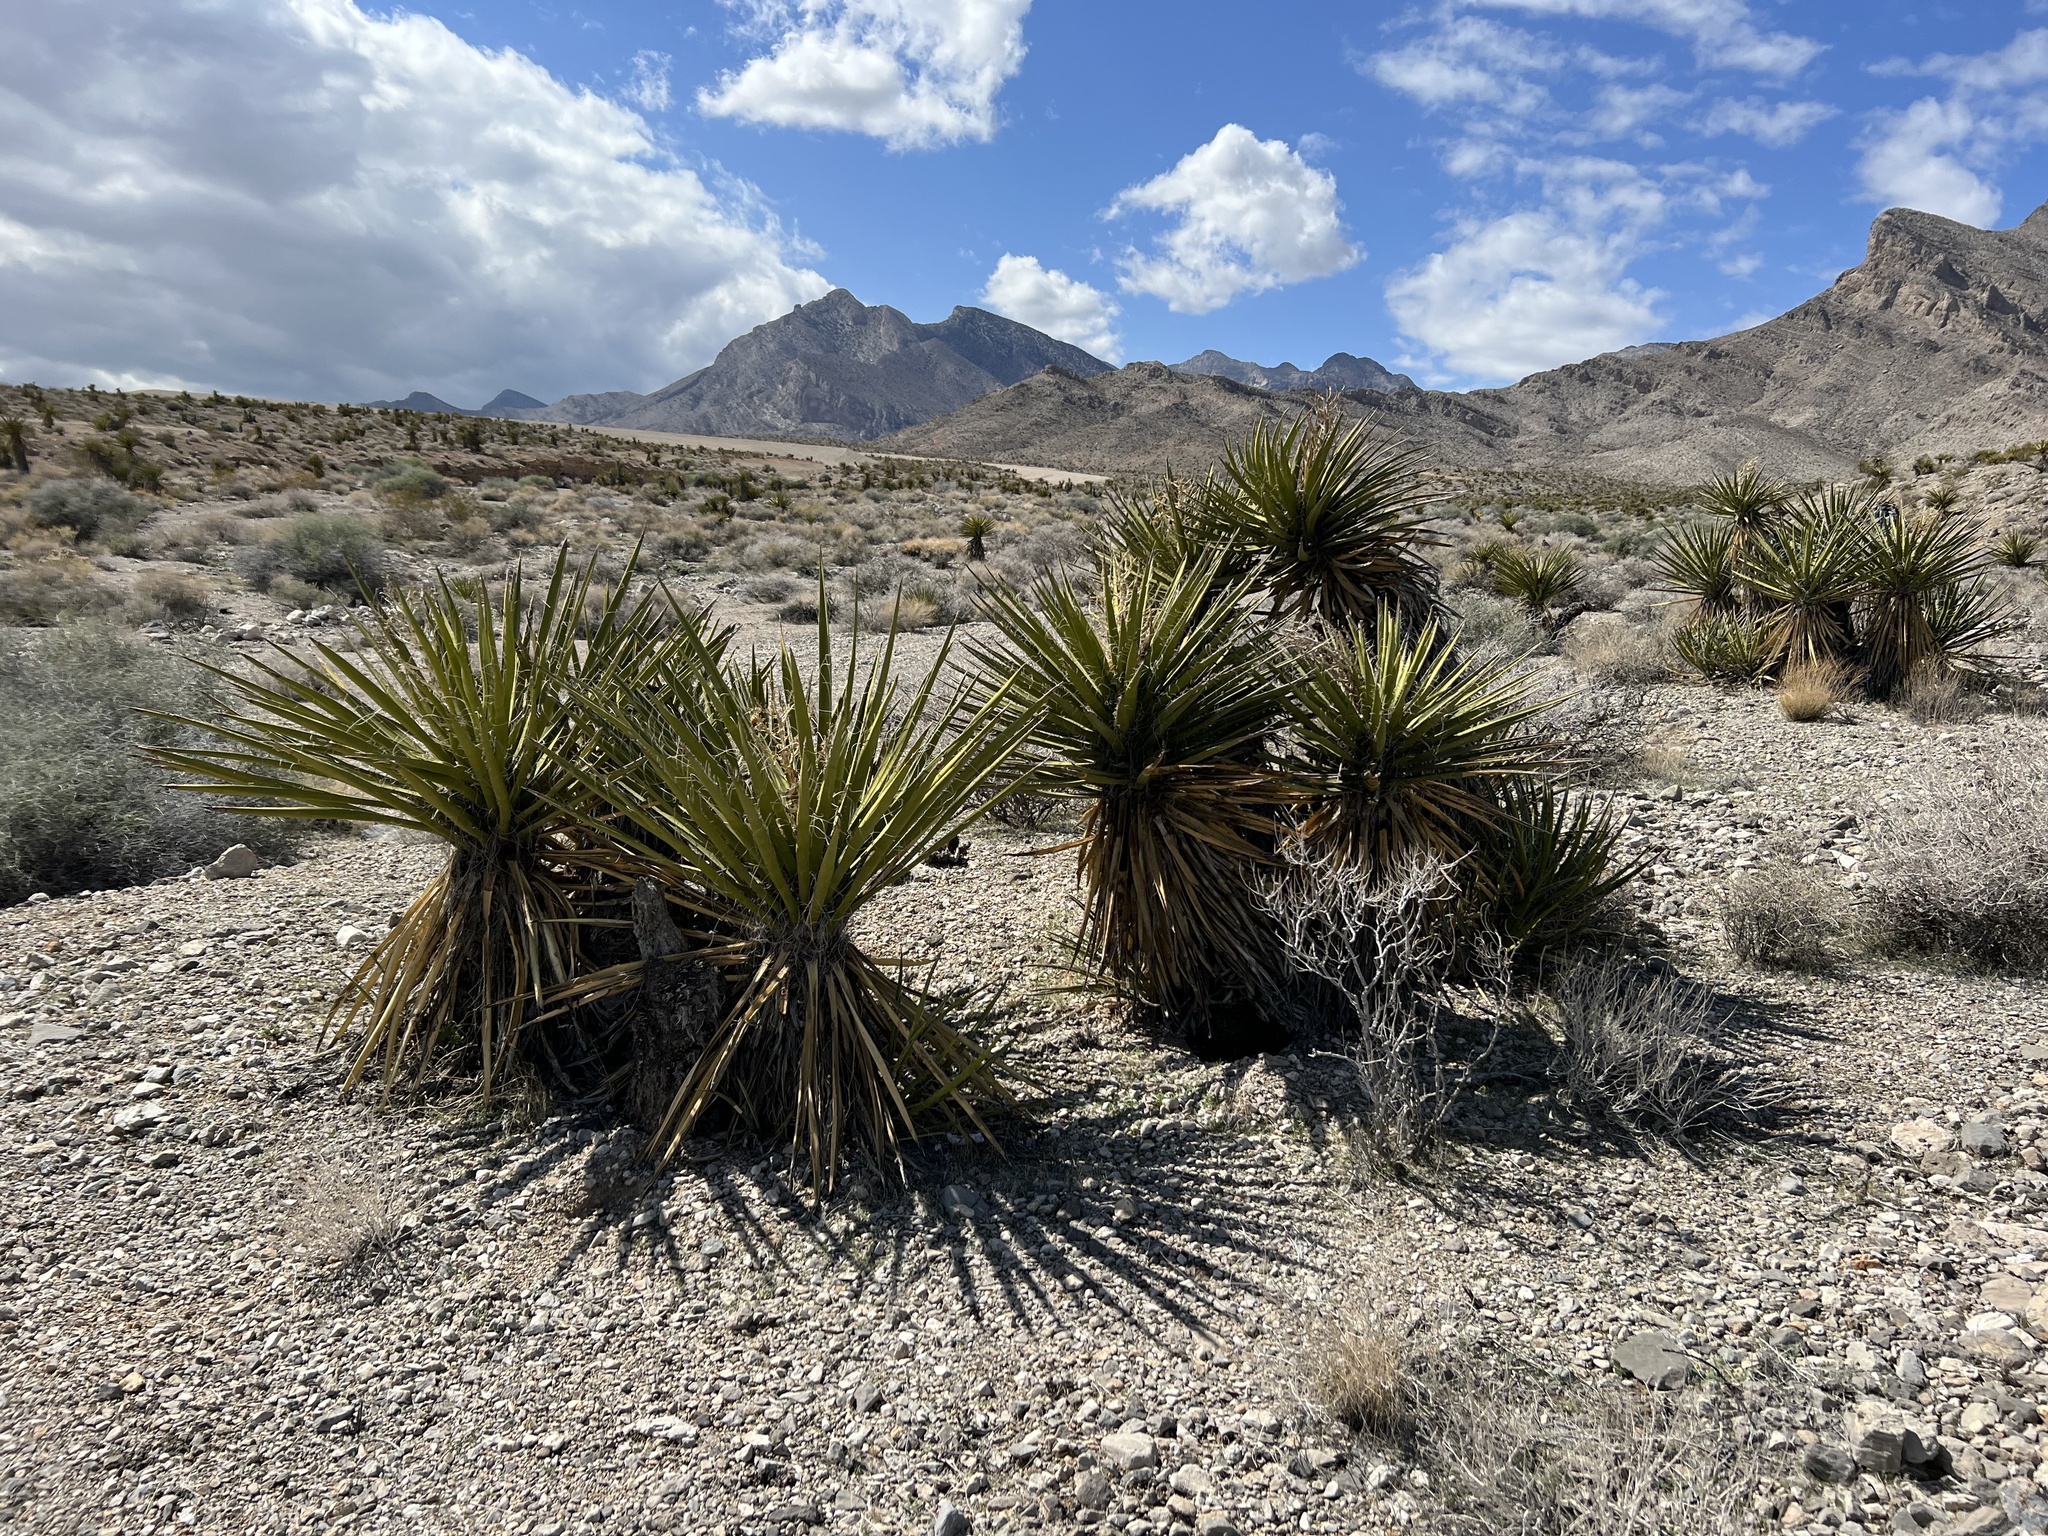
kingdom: Plantae
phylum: Tracheophyta
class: Liliopsida
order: Asparagales
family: Asparagaceae
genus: Yucca
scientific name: Yucca schidigera
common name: Mojave yucca
